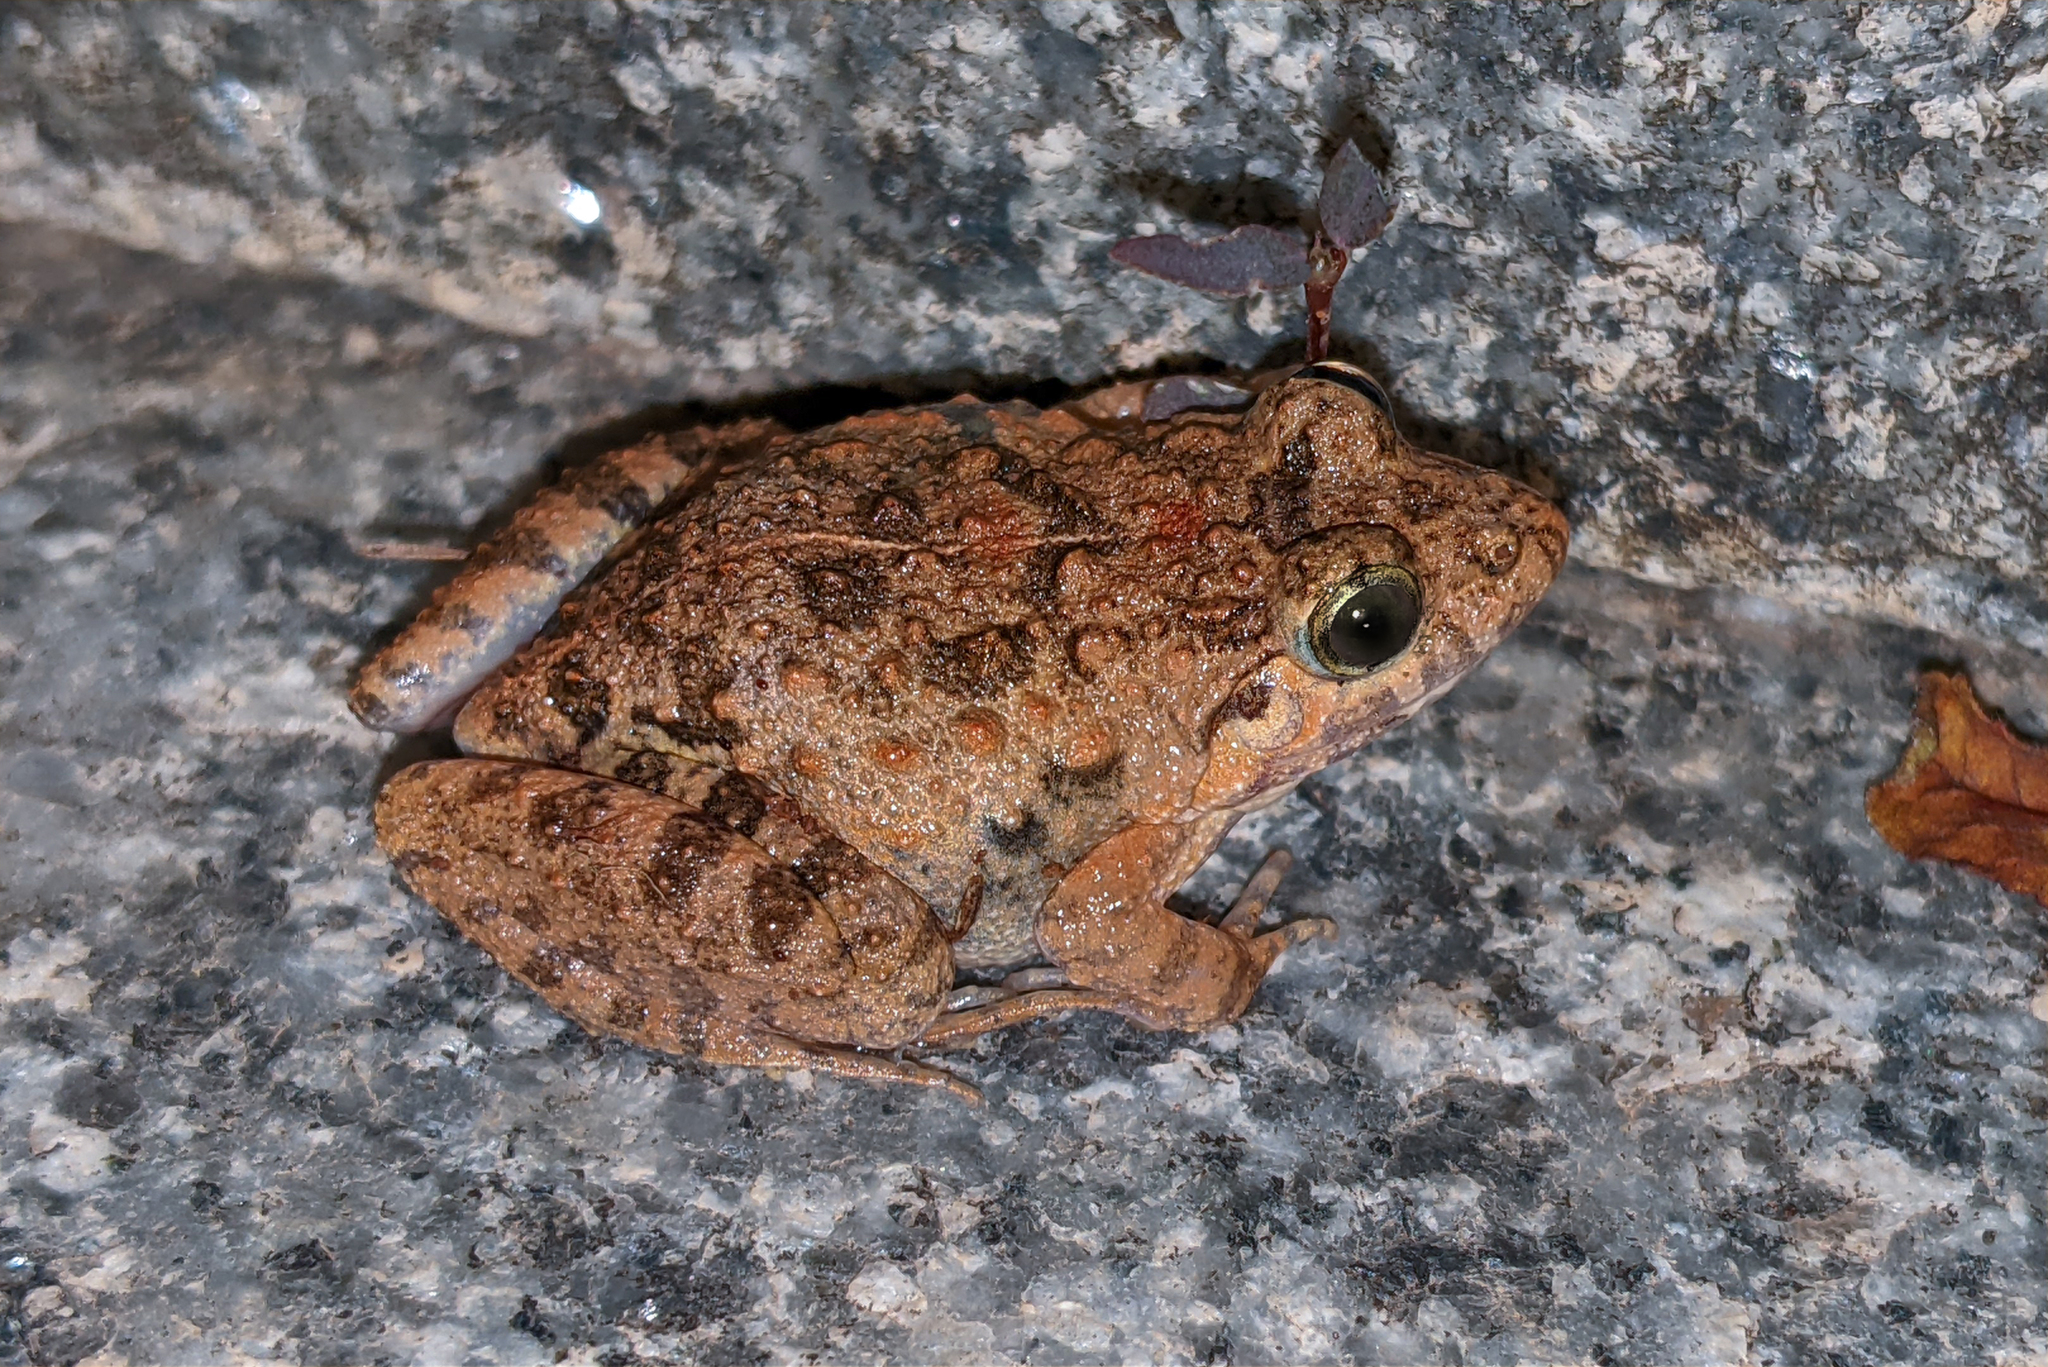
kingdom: Animalia
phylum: Chordata
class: Amphibia
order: Anura
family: Dicroglossidae
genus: Minervarya
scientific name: Minervarya rufescens
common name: Malabar wart frog
